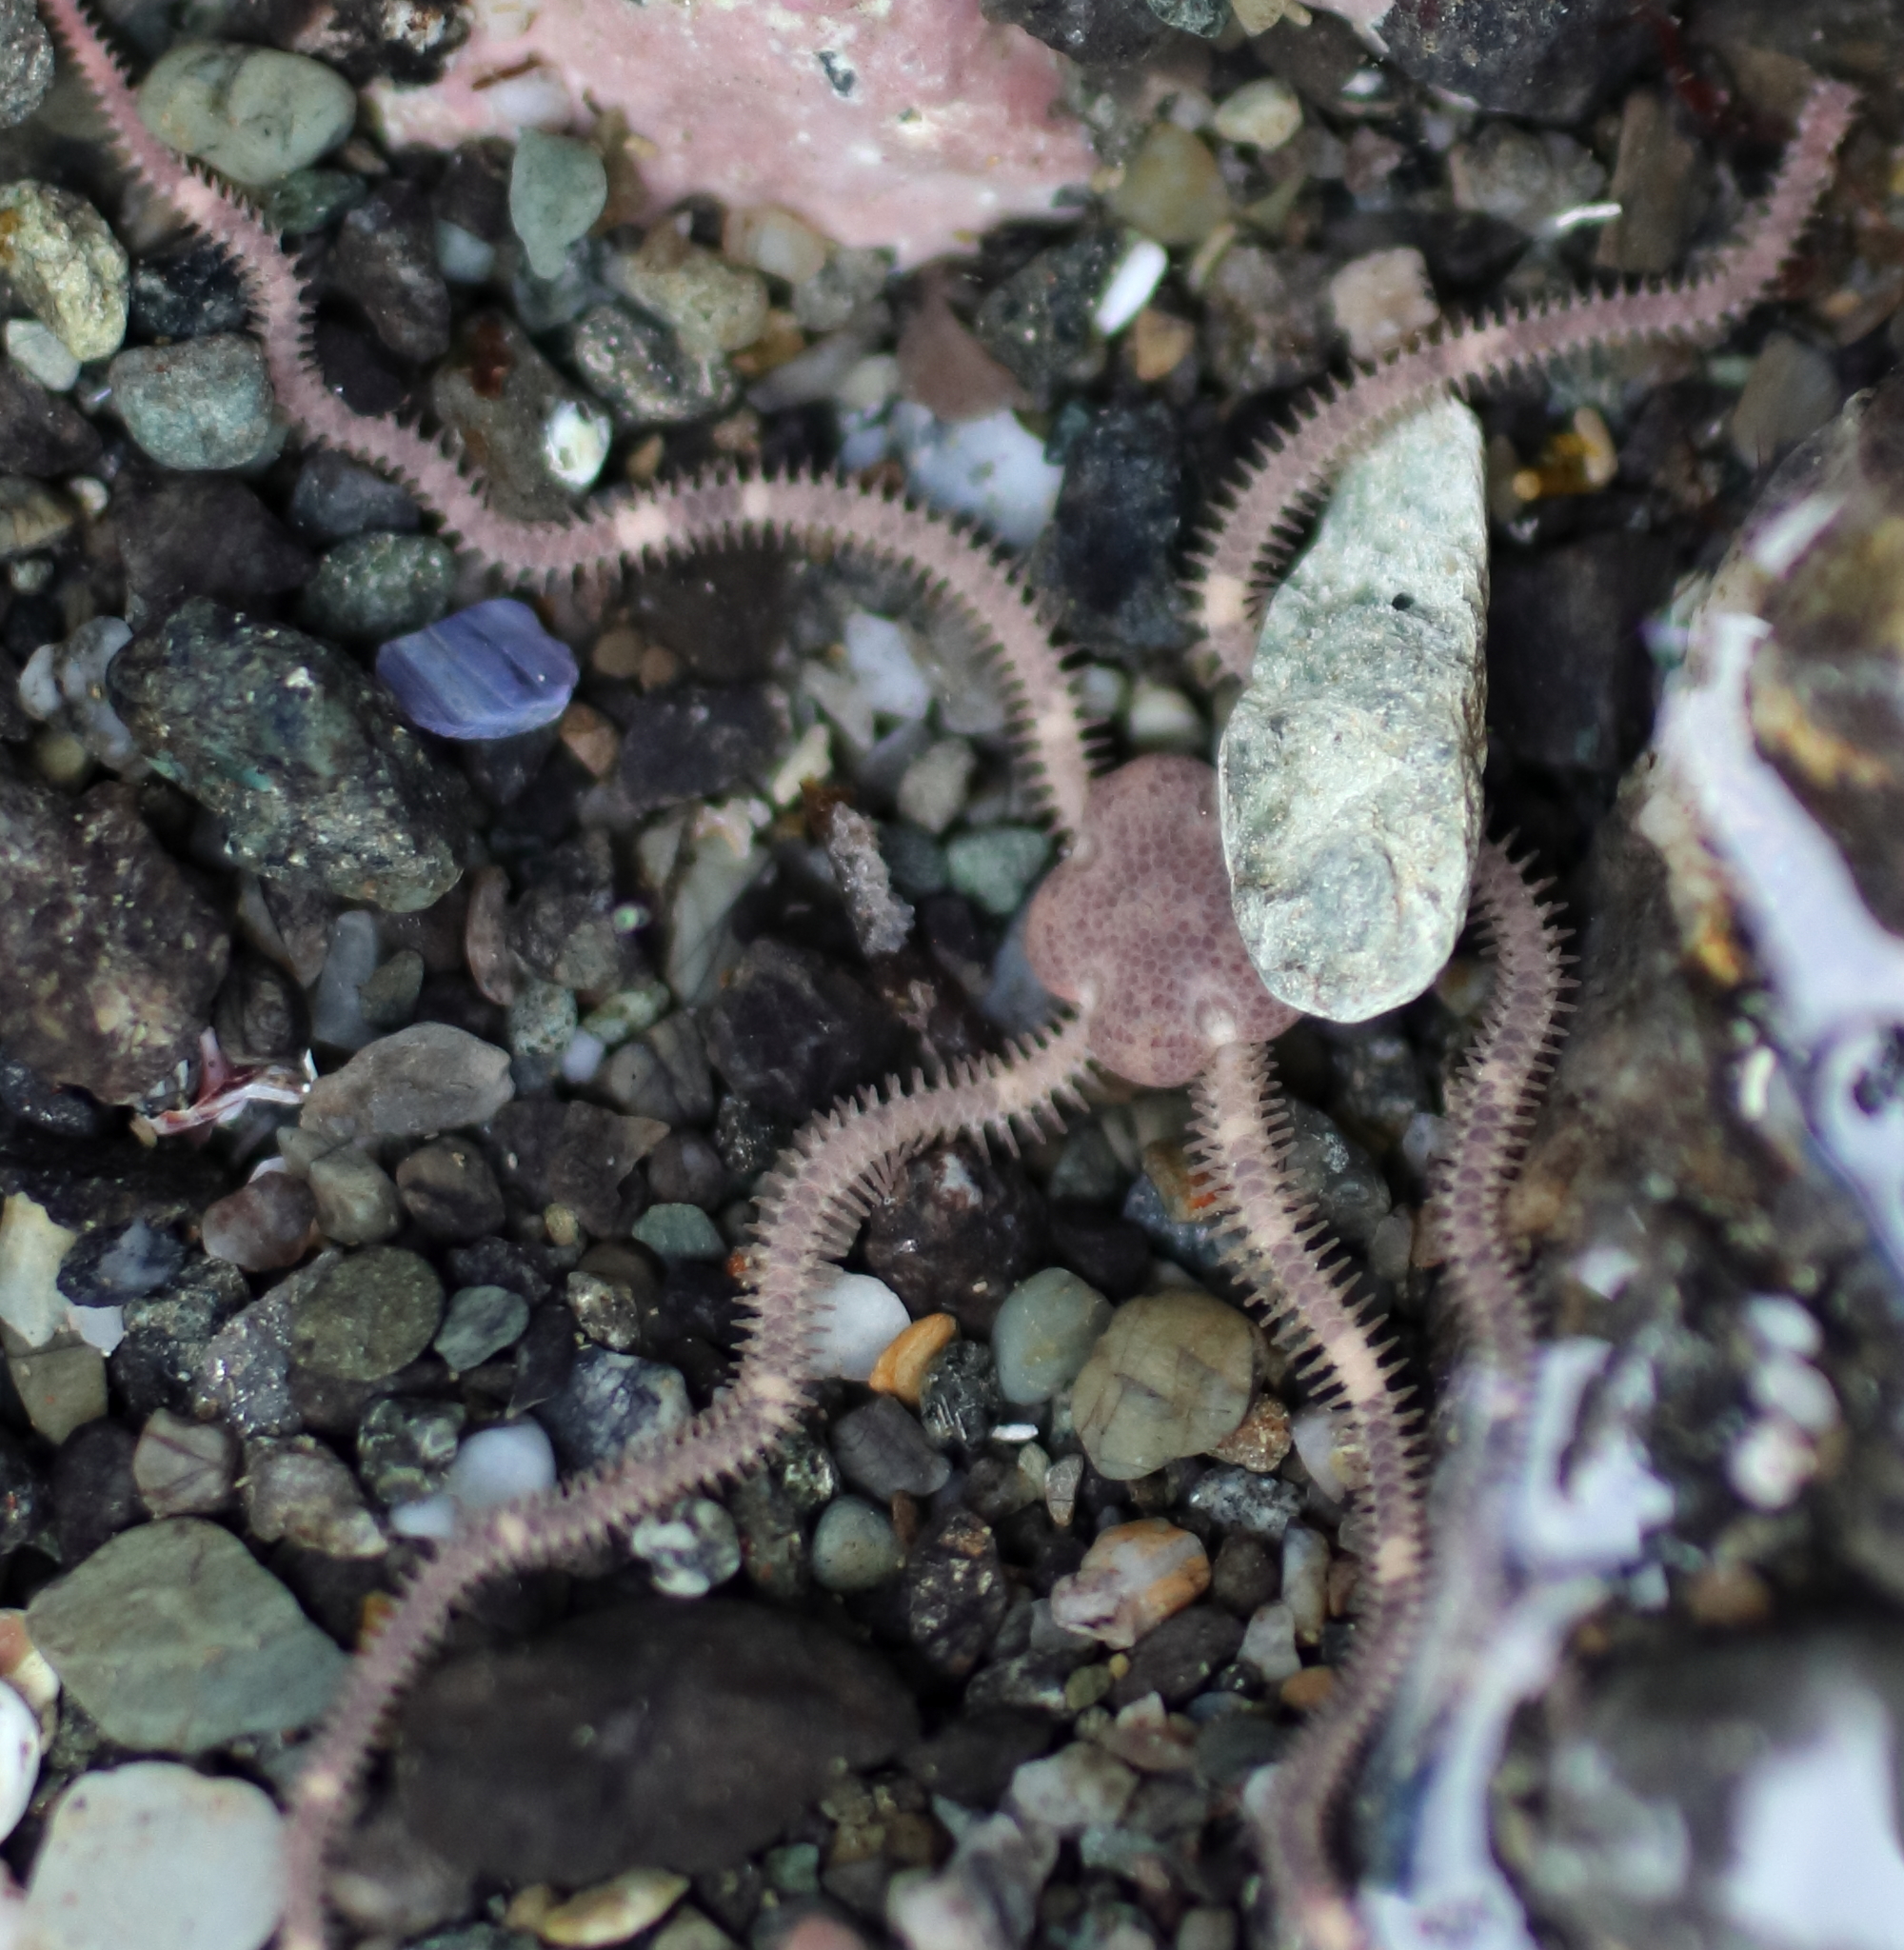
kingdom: Animalia
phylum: Echinodermata
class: Ophiuroidea
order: Amphilepidida
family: Amphiuridae
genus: Amphiodia
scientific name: Amphiodia occidentalis
